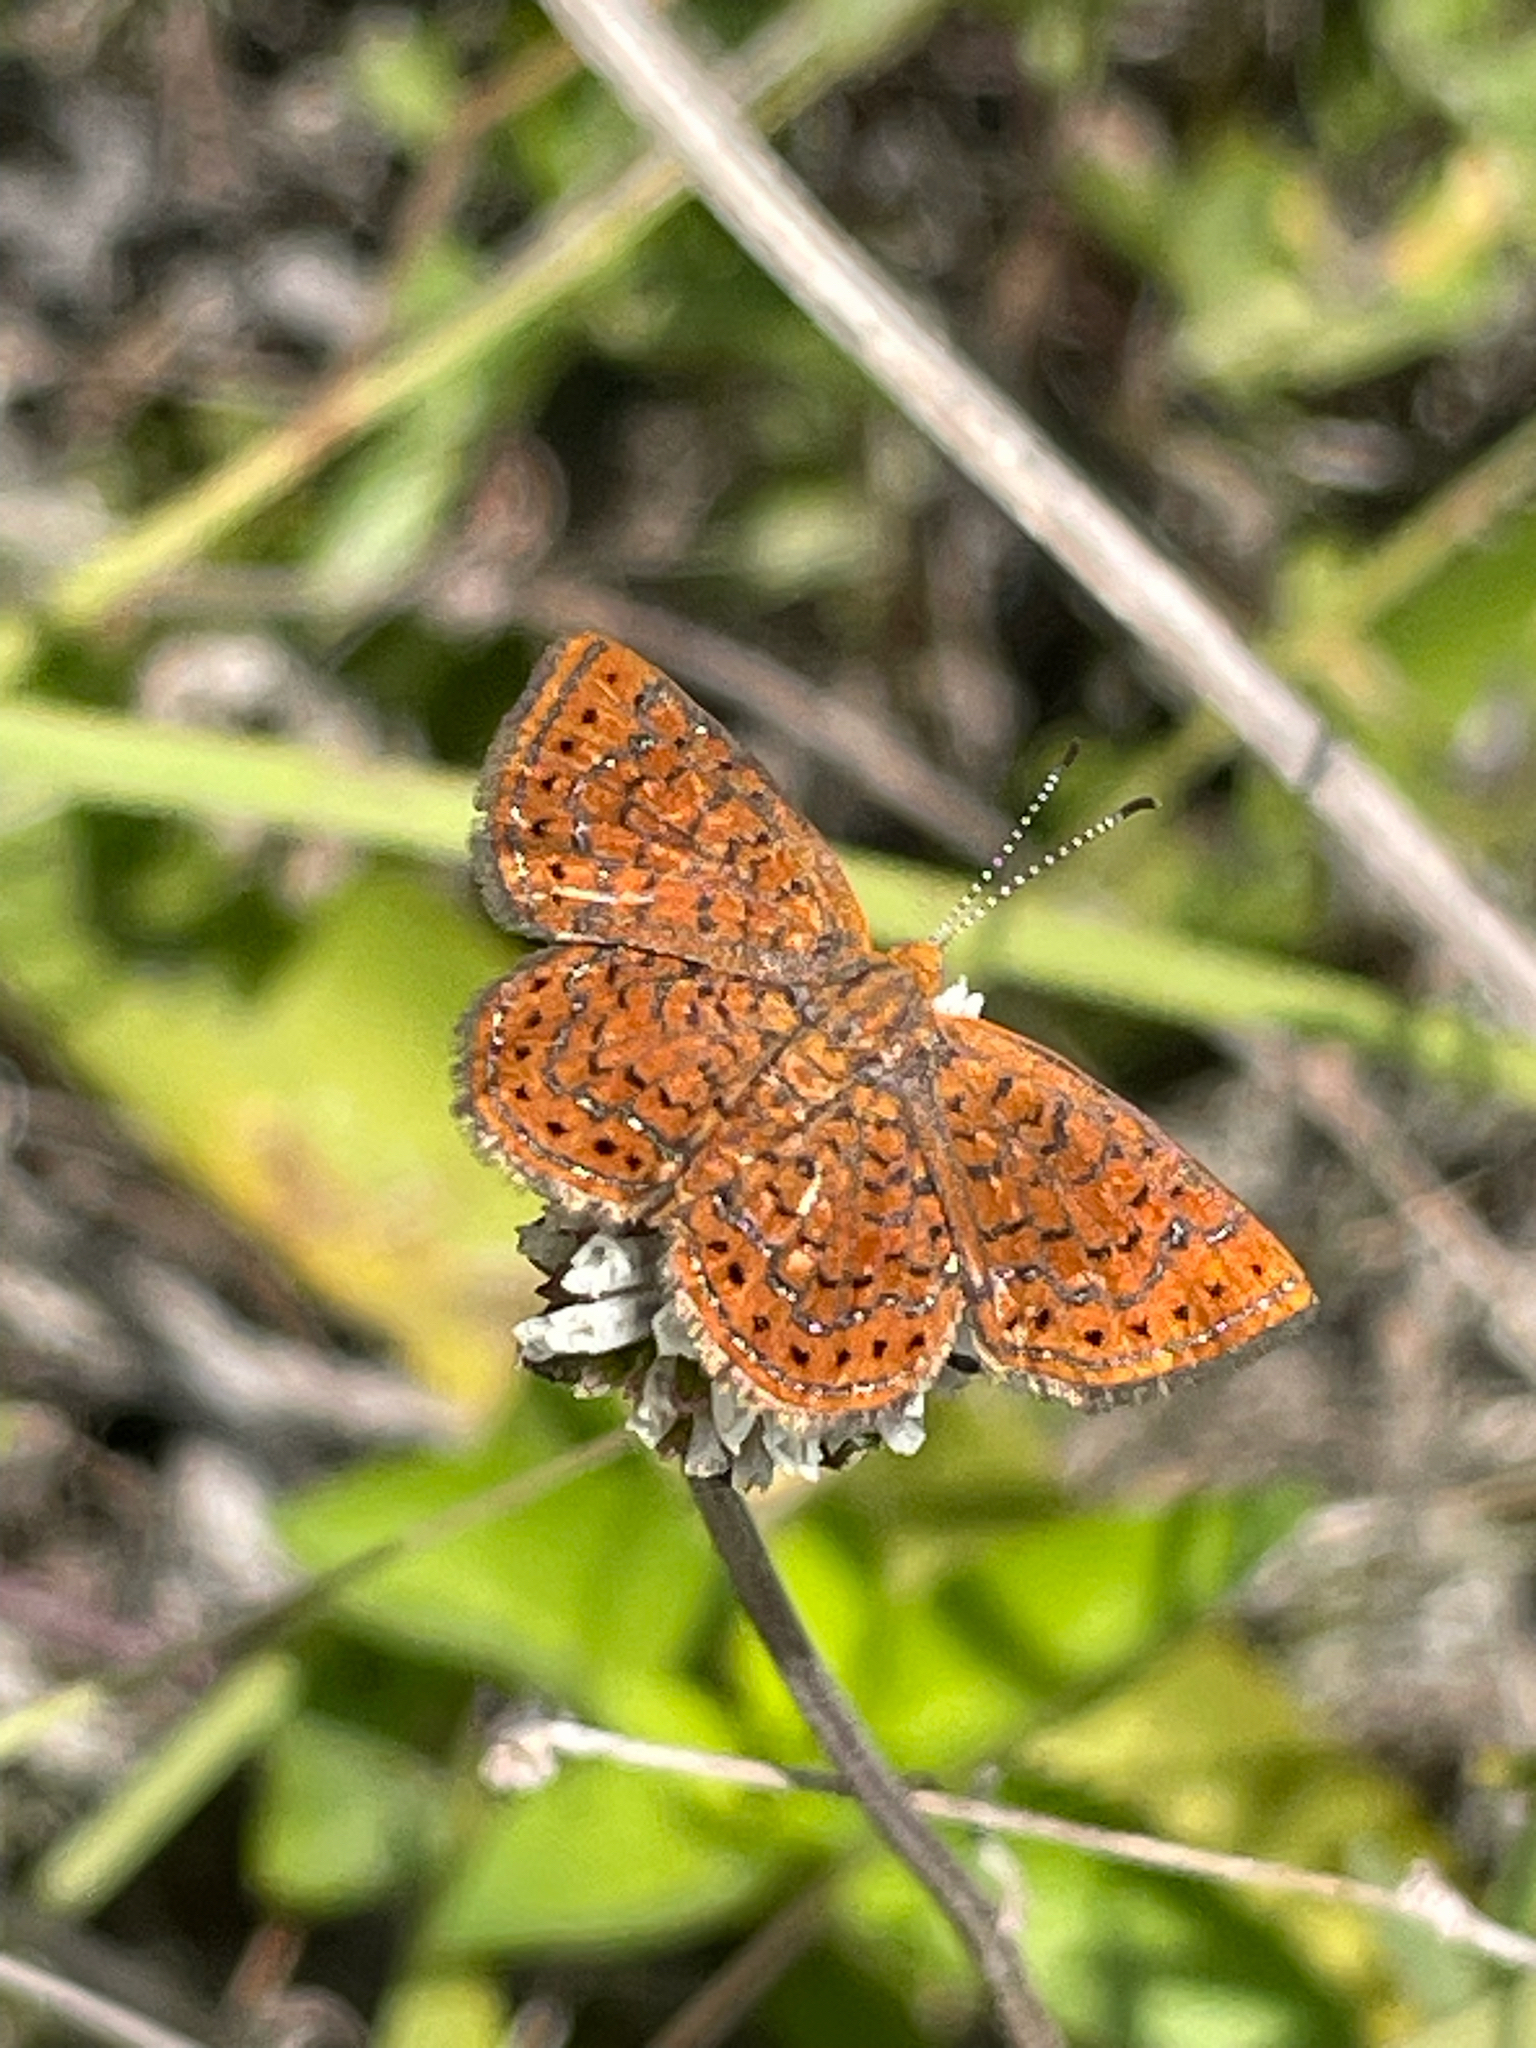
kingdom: Animalia
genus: Calephelis
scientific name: Calephelis virginiensis
